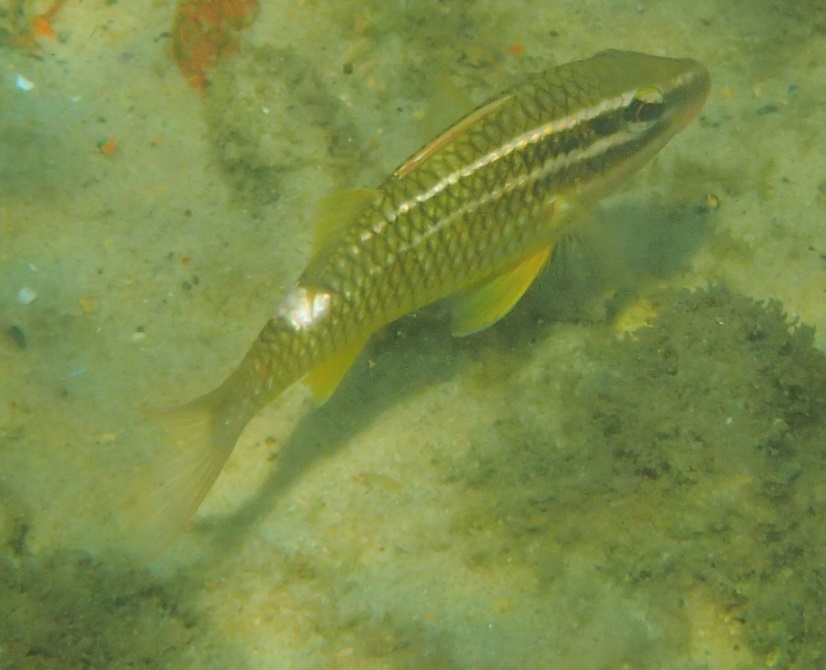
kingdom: Animalia
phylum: Chordata
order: Perciformes
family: Mullidae
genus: Parupeneus
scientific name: Parupeneus ciliatus
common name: White-lined goatfish
